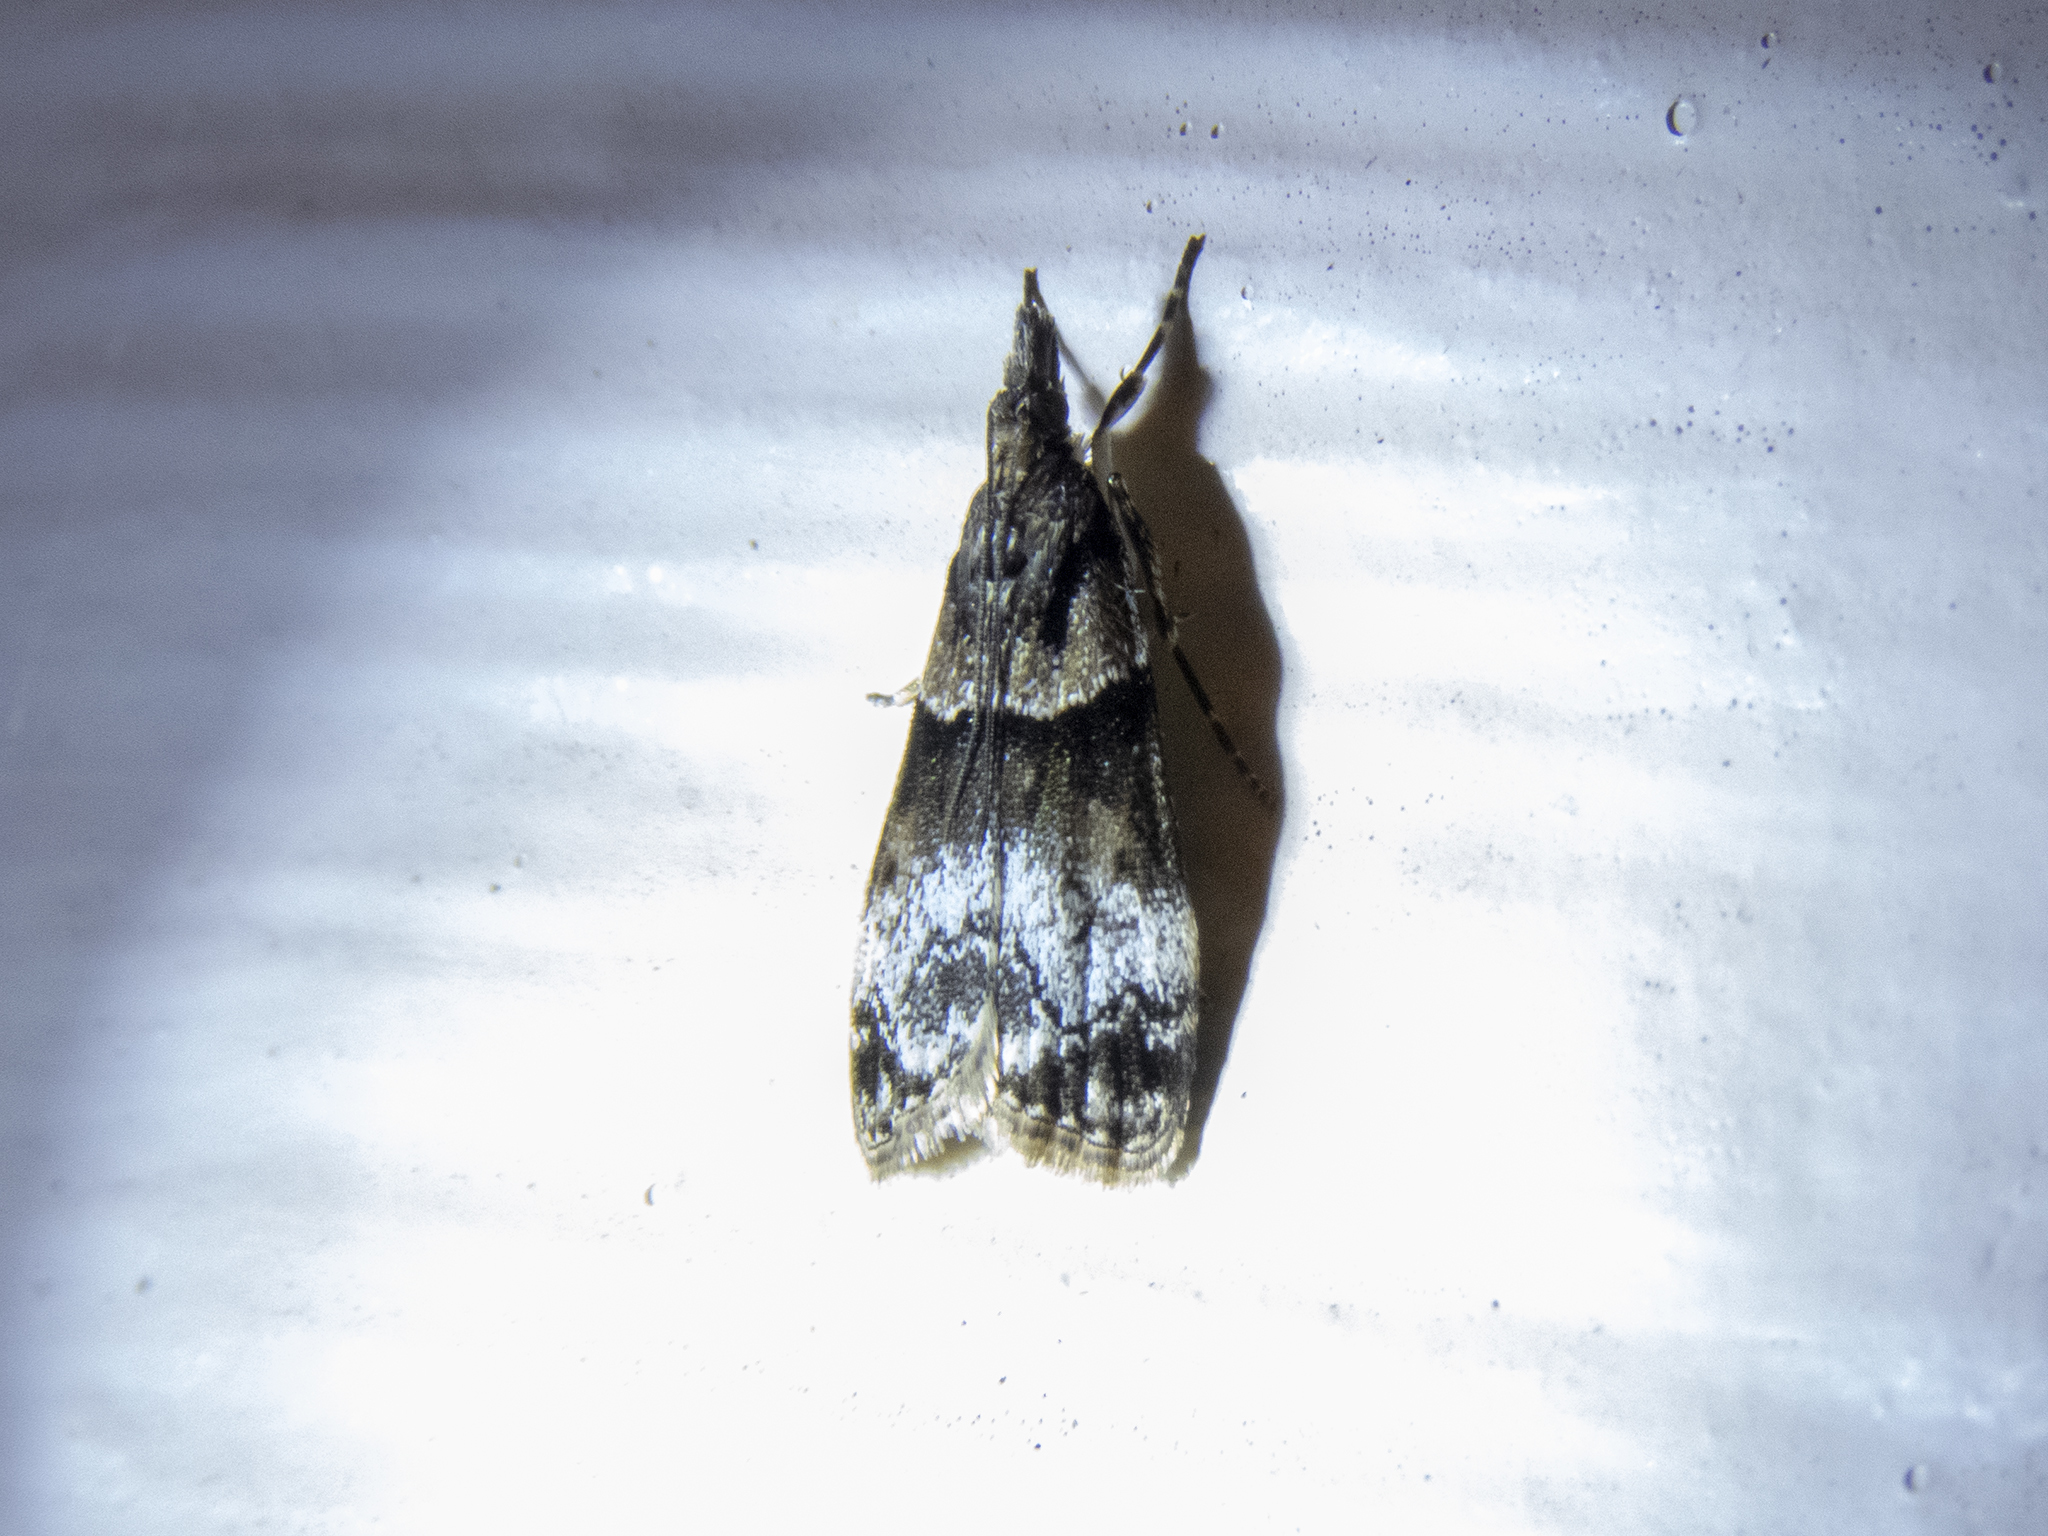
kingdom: Animalia
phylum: Arthropoda
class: Insecta
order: Lepidoptera
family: Crambidae
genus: Eudonia
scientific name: Eudonia colpota
